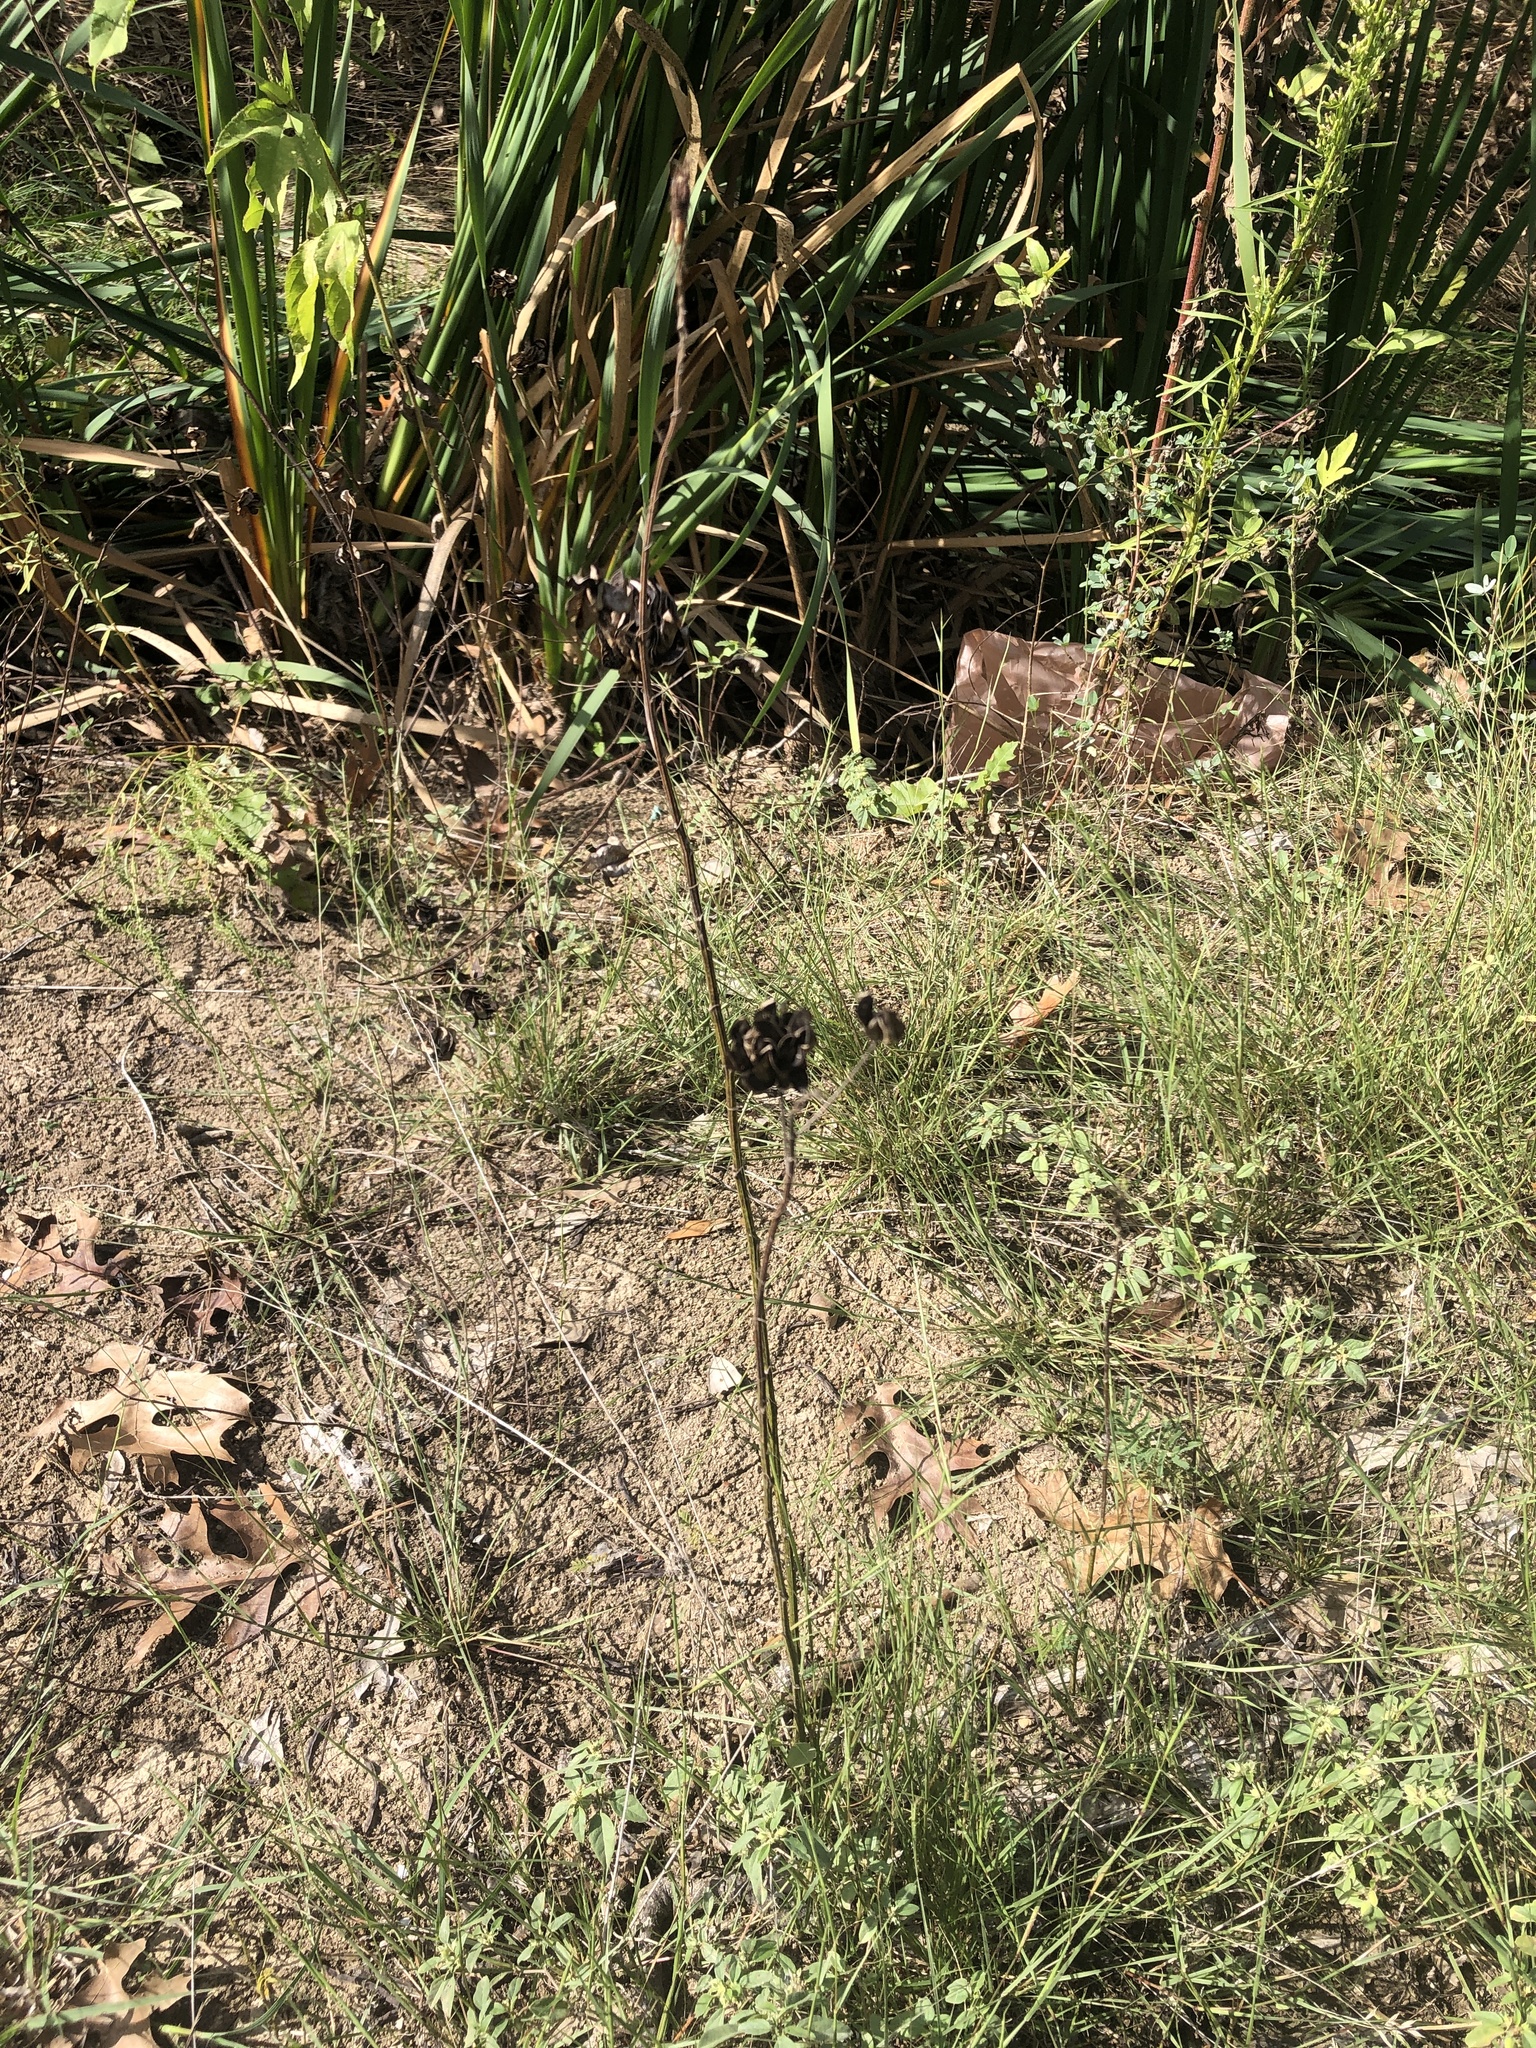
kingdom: Plantae
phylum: Tracheophyta
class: Magnoliopsida
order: Fabales
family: Fabaceae
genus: Desmanthus
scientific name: Desmanthus illinoensis
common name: Illinois bundle-flower
